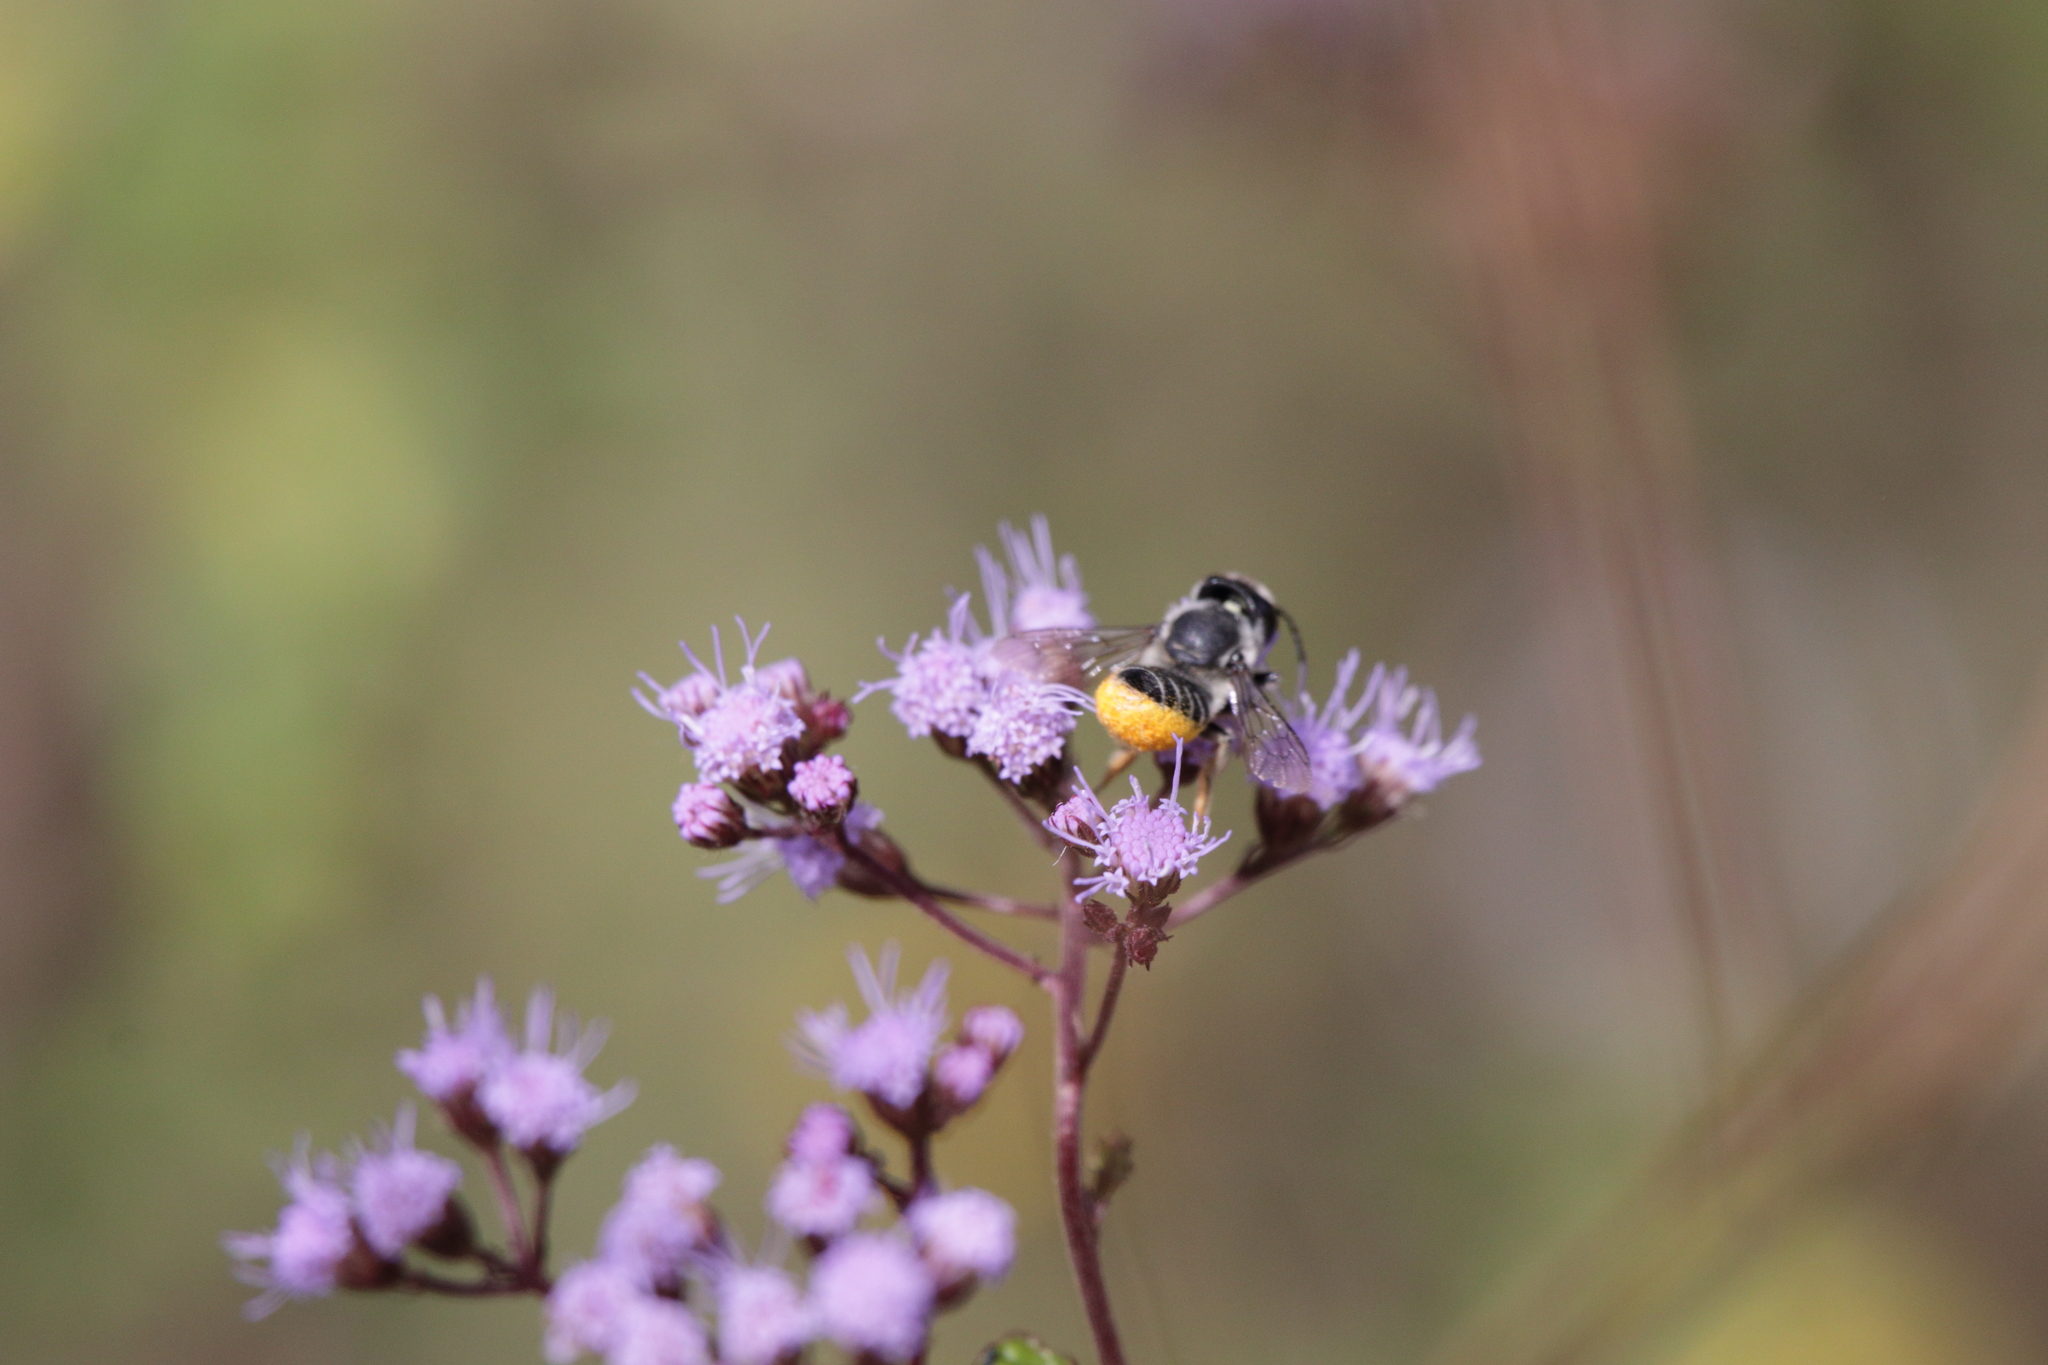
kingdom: Animalia
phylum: Arthropoda
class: Insecta
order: Hymenoptera
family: Megachilidae
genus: Megachile
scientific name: Megachile mendica
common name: Flat-tailed leafcutter
